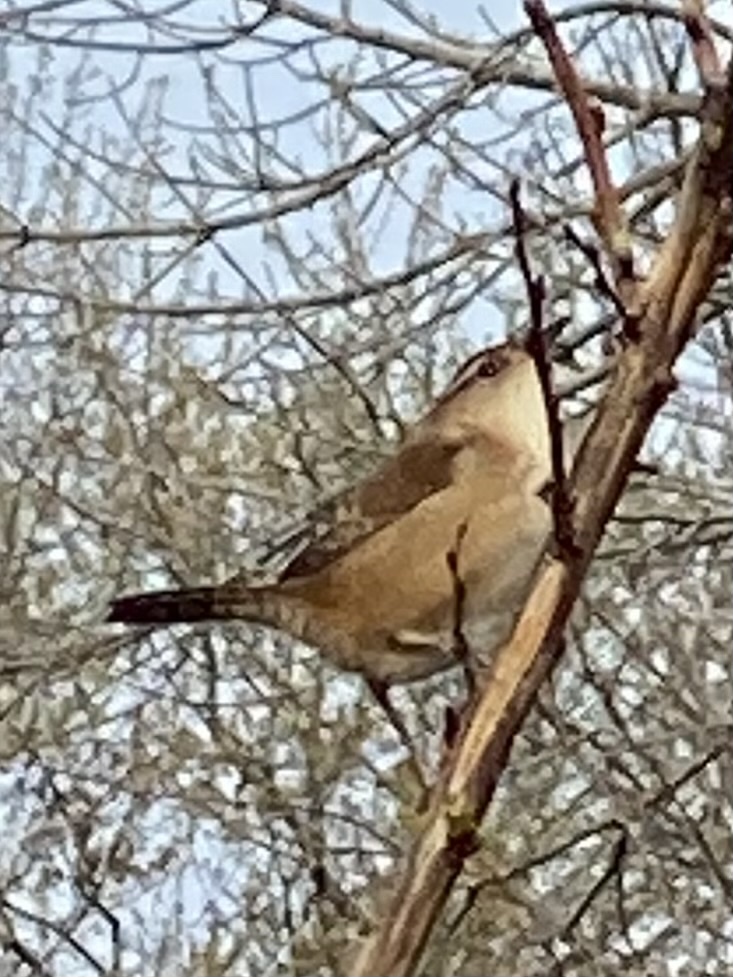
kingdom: Animalia
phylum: Chordata
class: Aves
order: Passeriformes
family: Troglodytidae
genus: Cistothorus
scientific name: Cistothorus palustris
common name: Marsh wren
